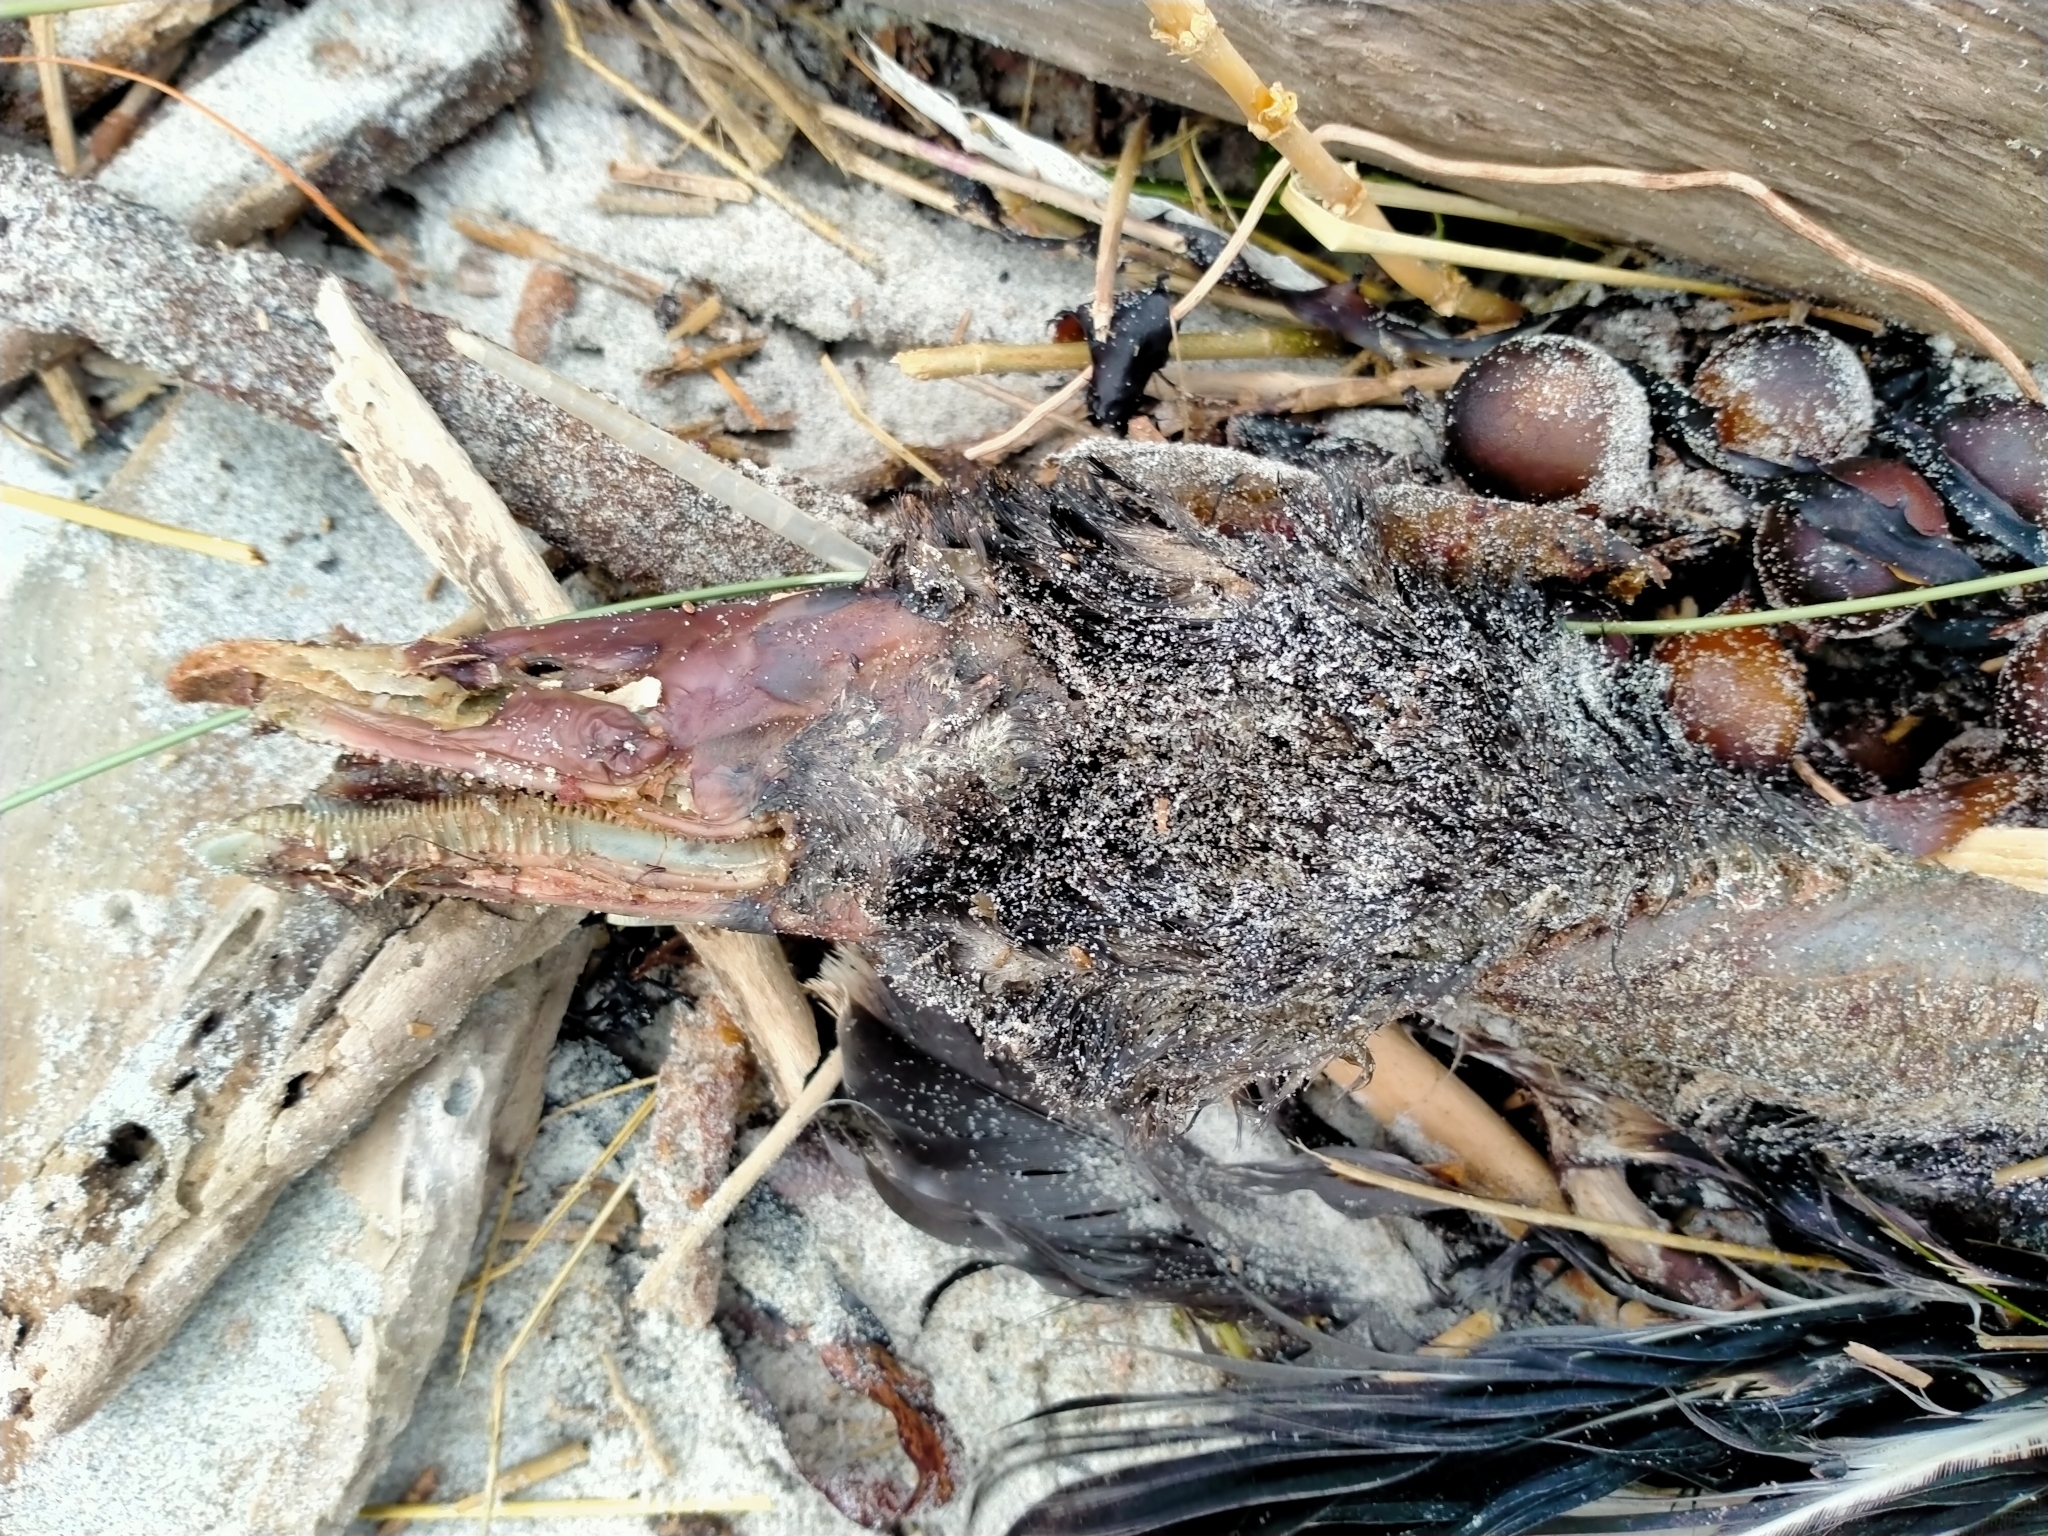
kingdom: Animalia
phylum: Chordata
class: Aves
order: Anseriformes
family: Anatidae
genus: Cygnus
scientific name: Cygnus atratus
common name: Black swan
